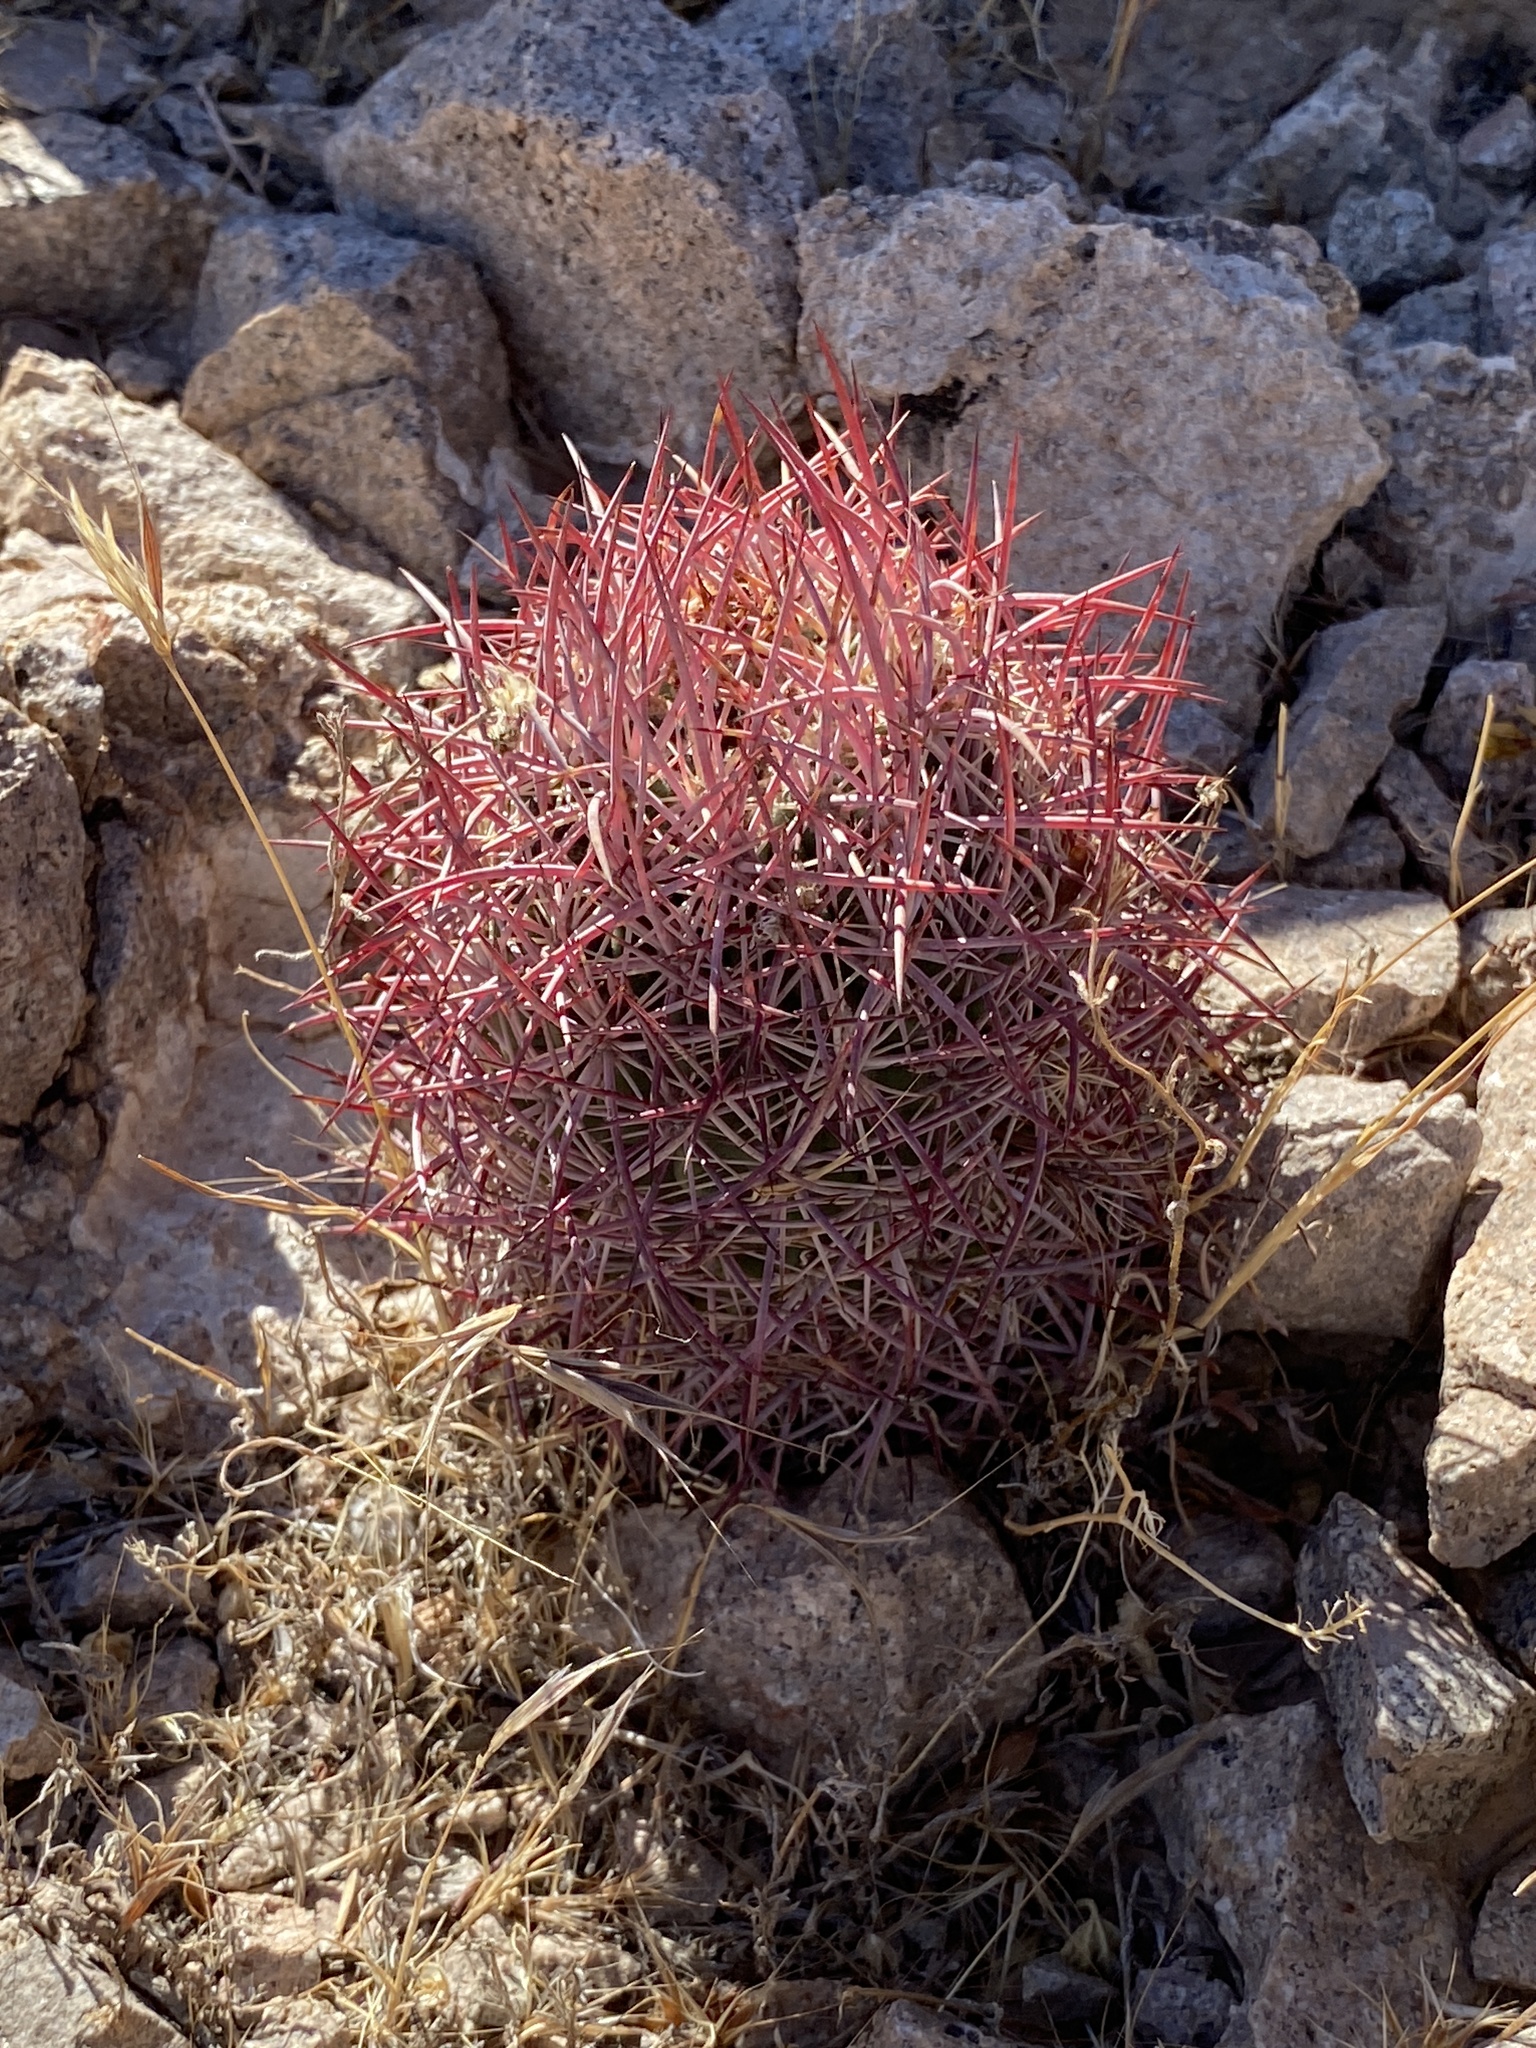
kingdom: Plantae
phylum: Tracheophyta
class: Magnoliopsida
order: Caryophyllales
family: Cactaceae
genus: Sclerocactus
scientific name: Sclerocactus johnsonii
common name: Eight-spine fishhook cactus
